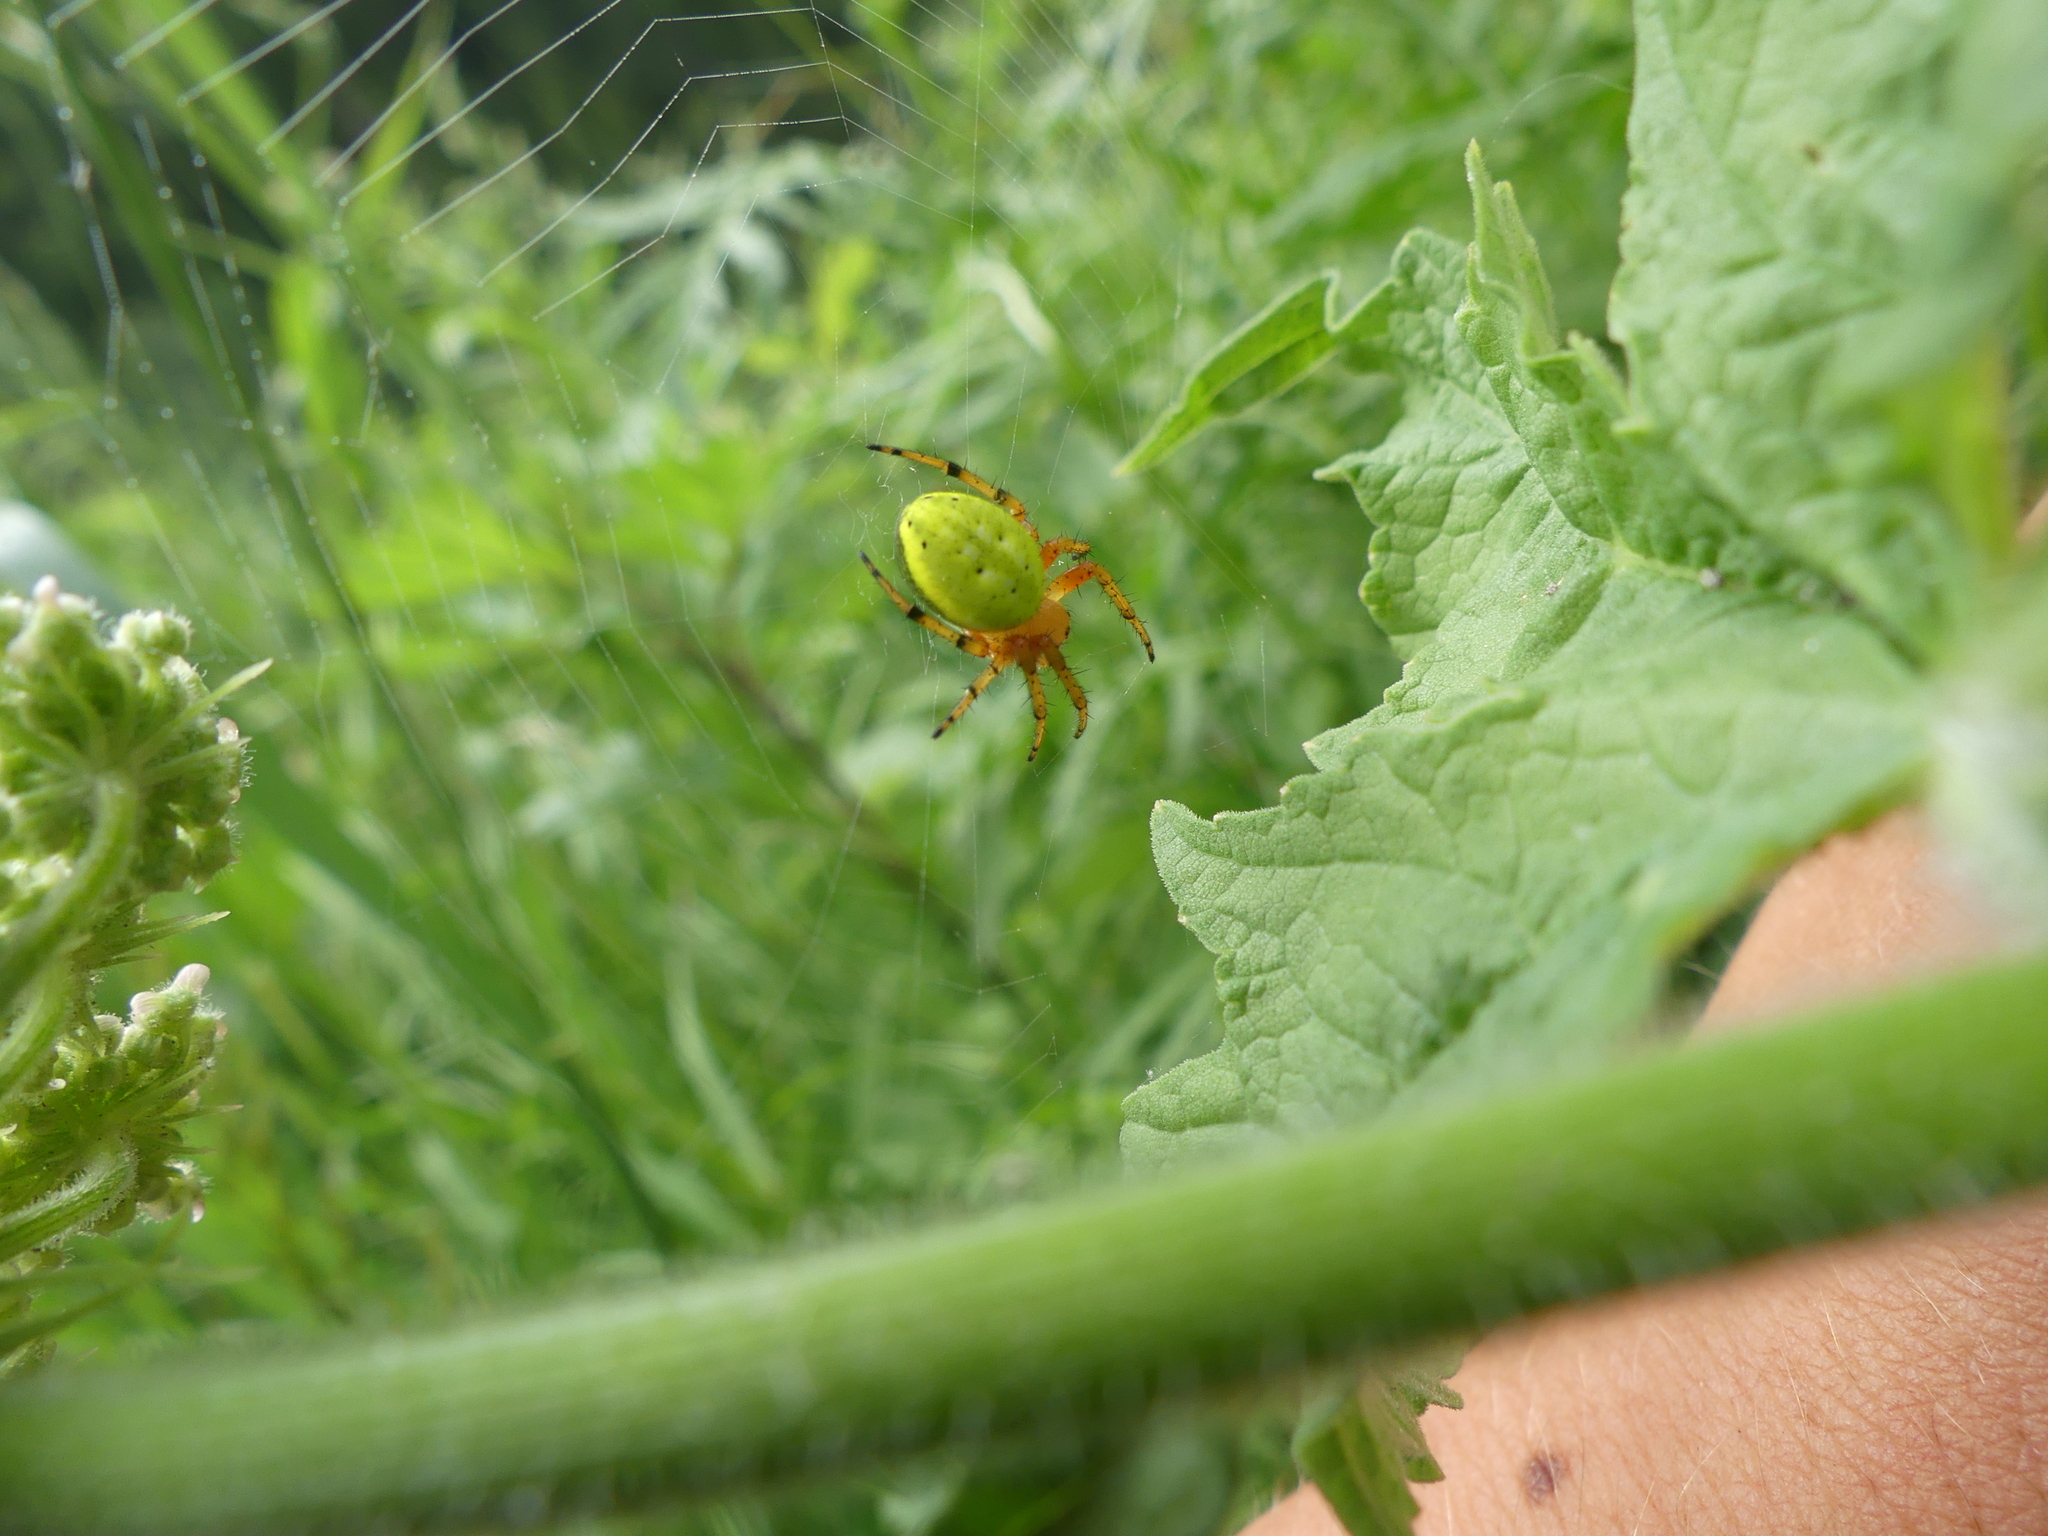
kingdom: Animalia
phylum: Arthropoda
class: Arachnida
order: Araneae
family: Araneidae
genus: Araniella
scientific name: Araniella alpica
